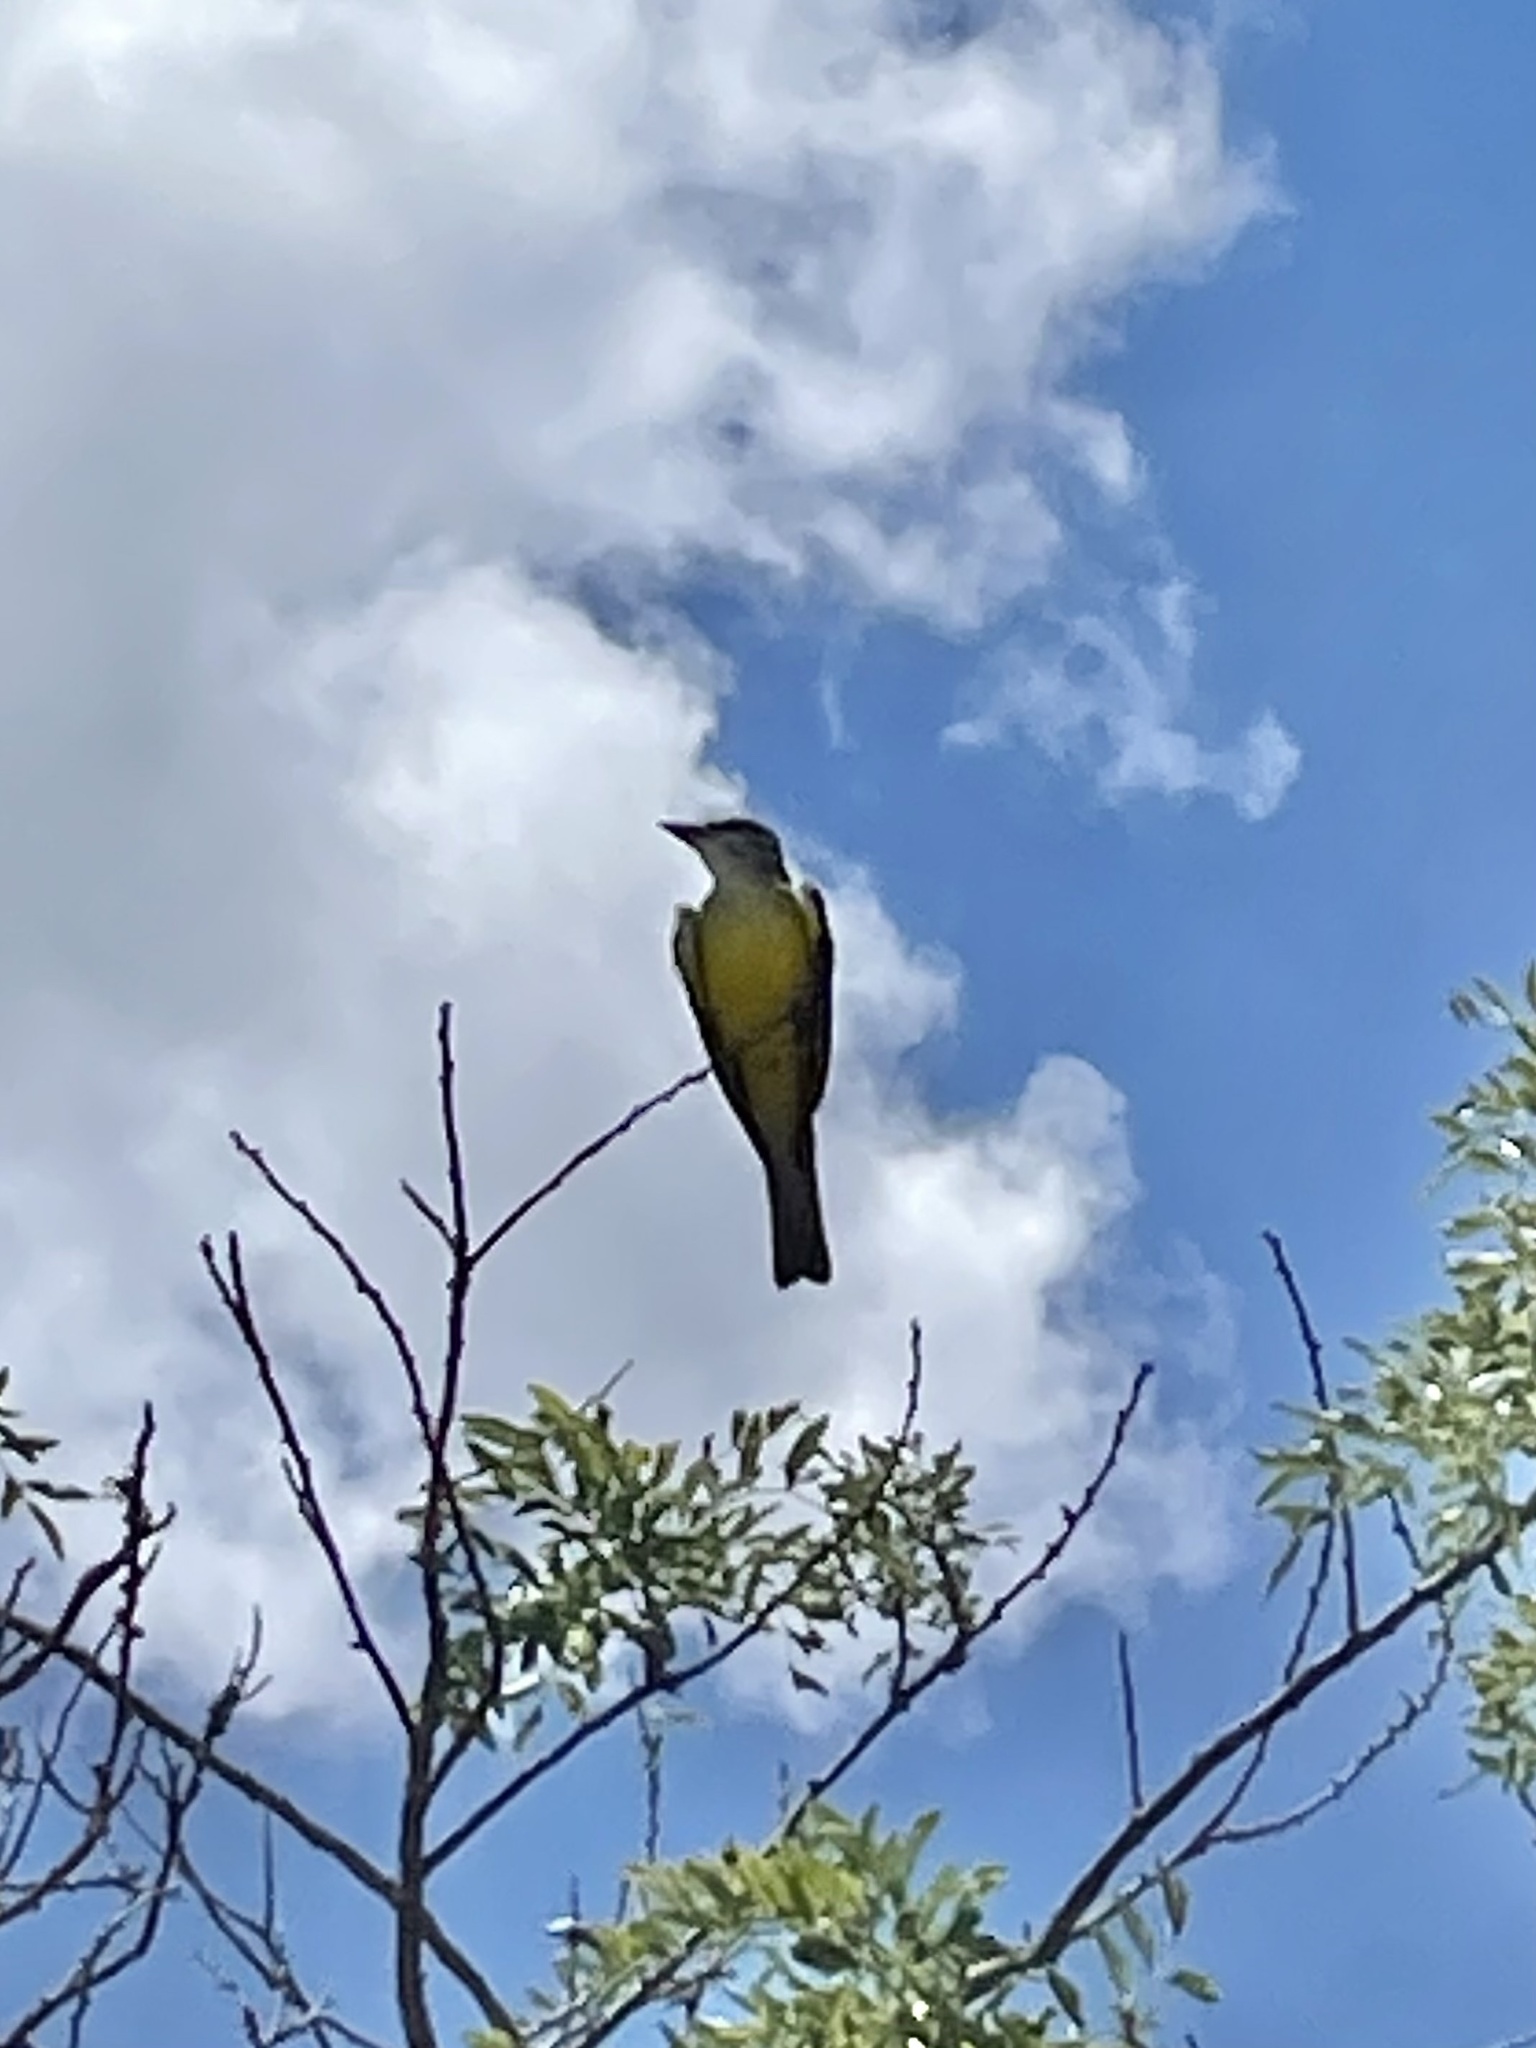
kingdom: Animalia
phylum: Chordata
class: Aves
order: Passeriformes
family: Tyrannidae
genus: Tyrannus
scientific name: Tyrannus couchii
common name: Couch's kingbird
